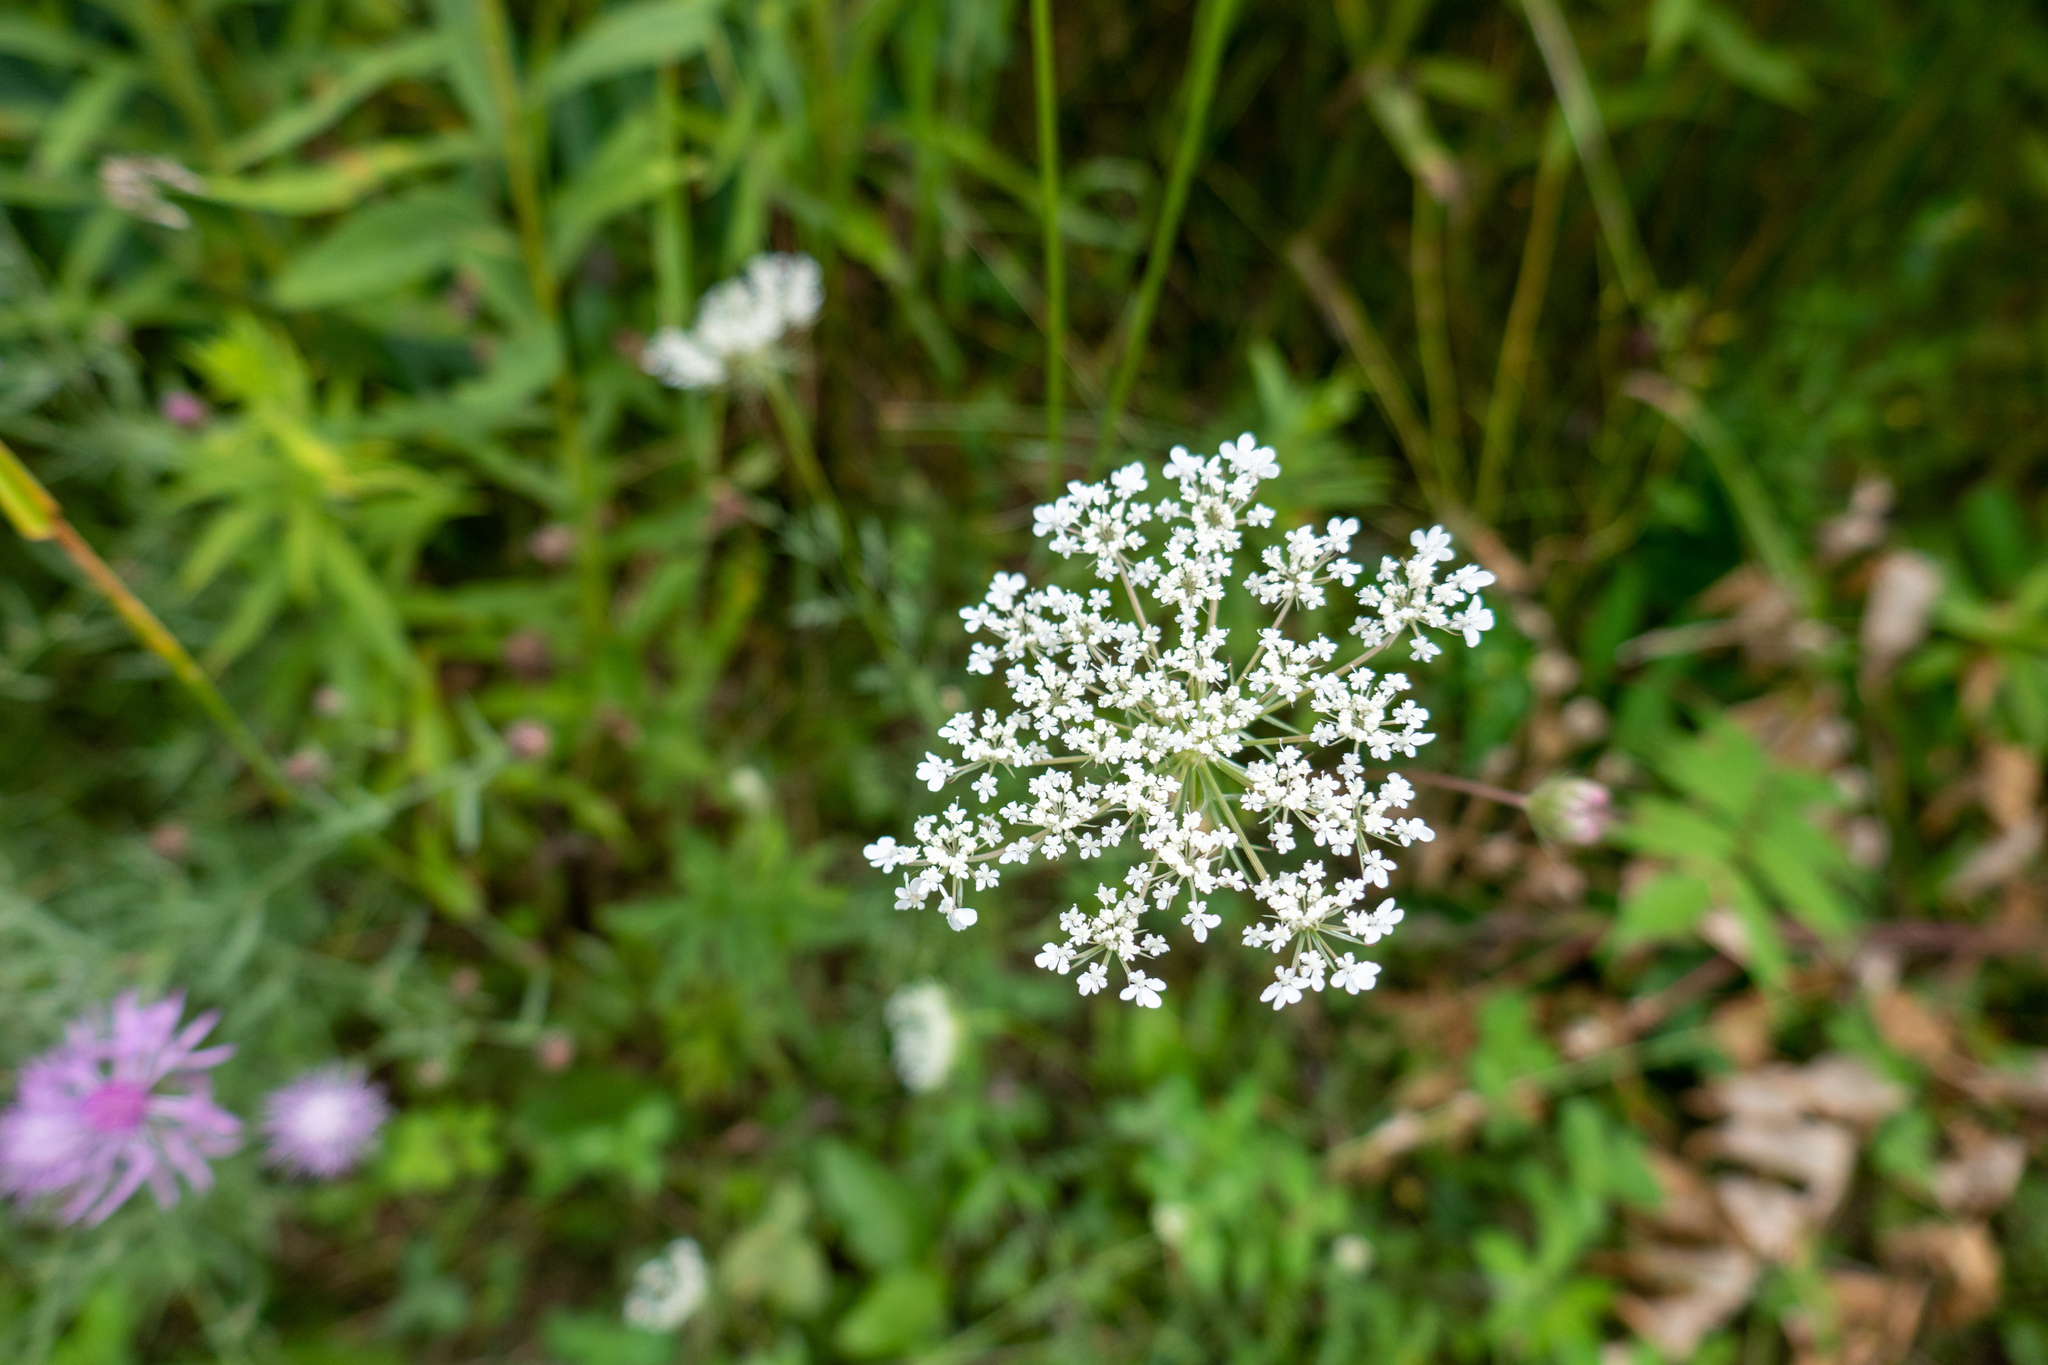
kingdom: Plantae
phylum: Tracheophyta
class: Magnoliopsida
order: Apiales
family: Apiaceae
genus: Daucus
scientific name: Daucus carota
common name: Wild carrot
